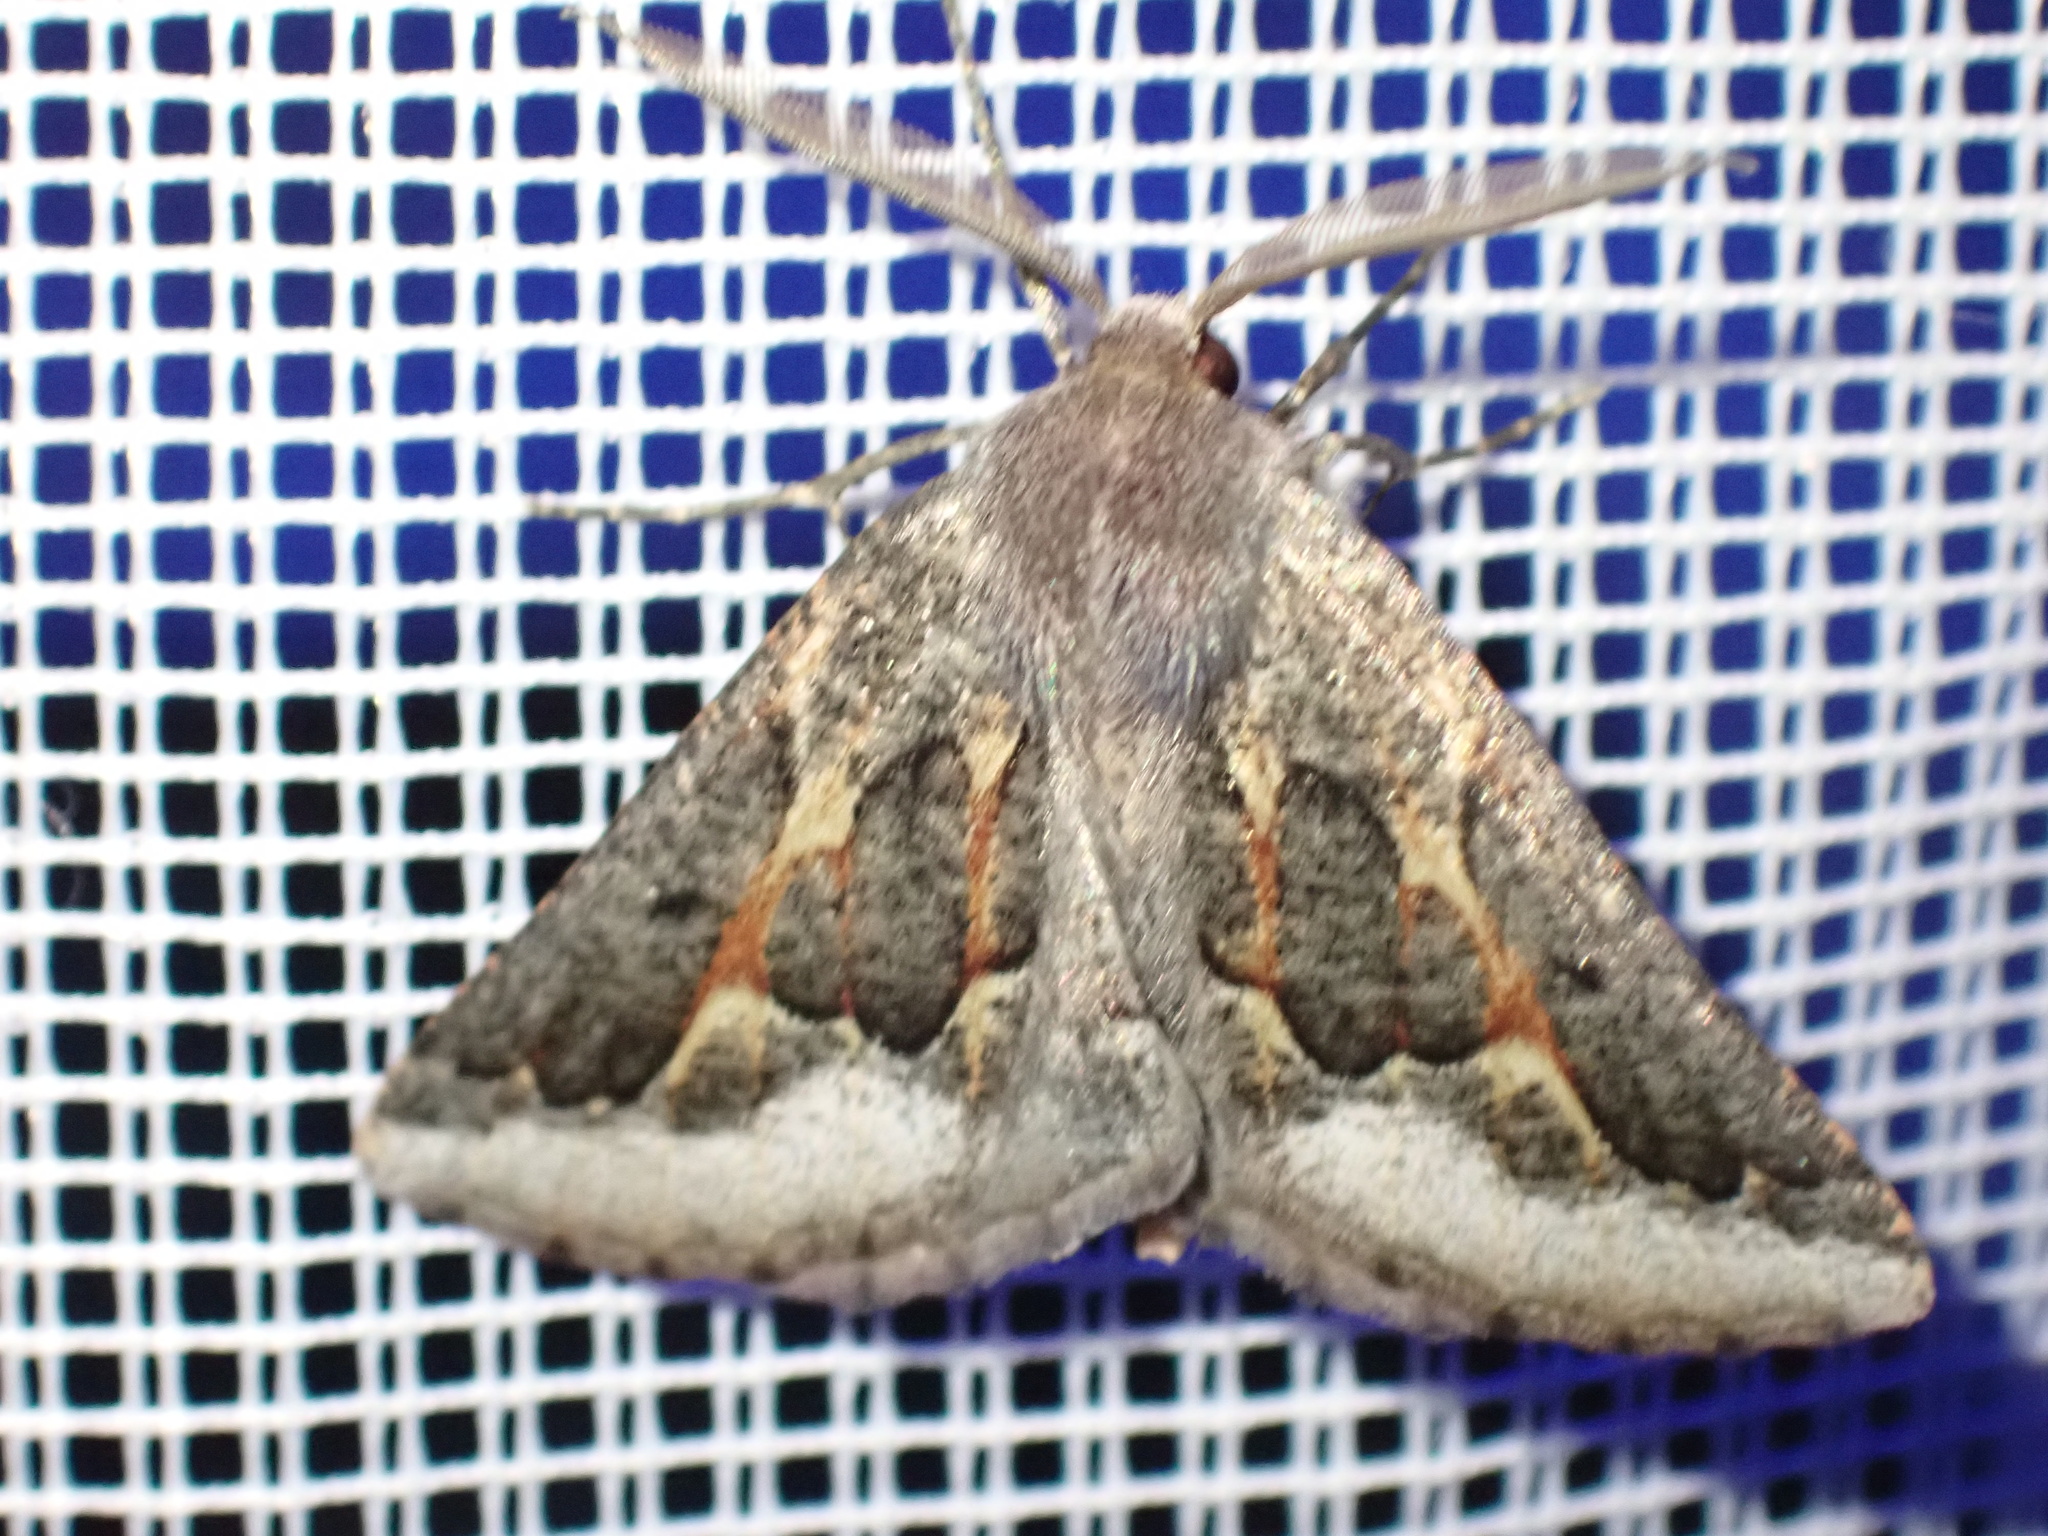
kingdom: Animalia
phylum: Arthropoda
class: Insecta
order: Lepidoptera
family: Geometridae
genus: Axiodes
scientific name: Axiodes intricata
